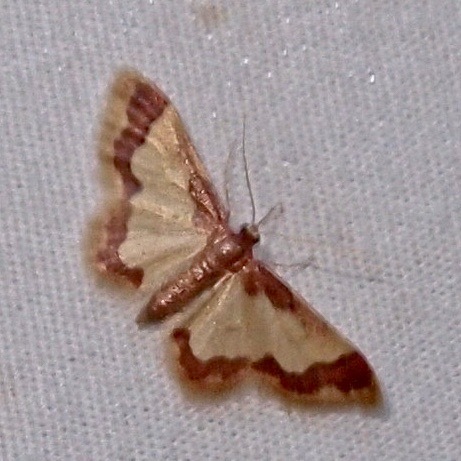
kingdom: Animalia
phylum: Arthropoda
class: Insecta
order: Lepidoptera
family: Geometridae
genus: Idaea
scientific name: Idaea basinta
